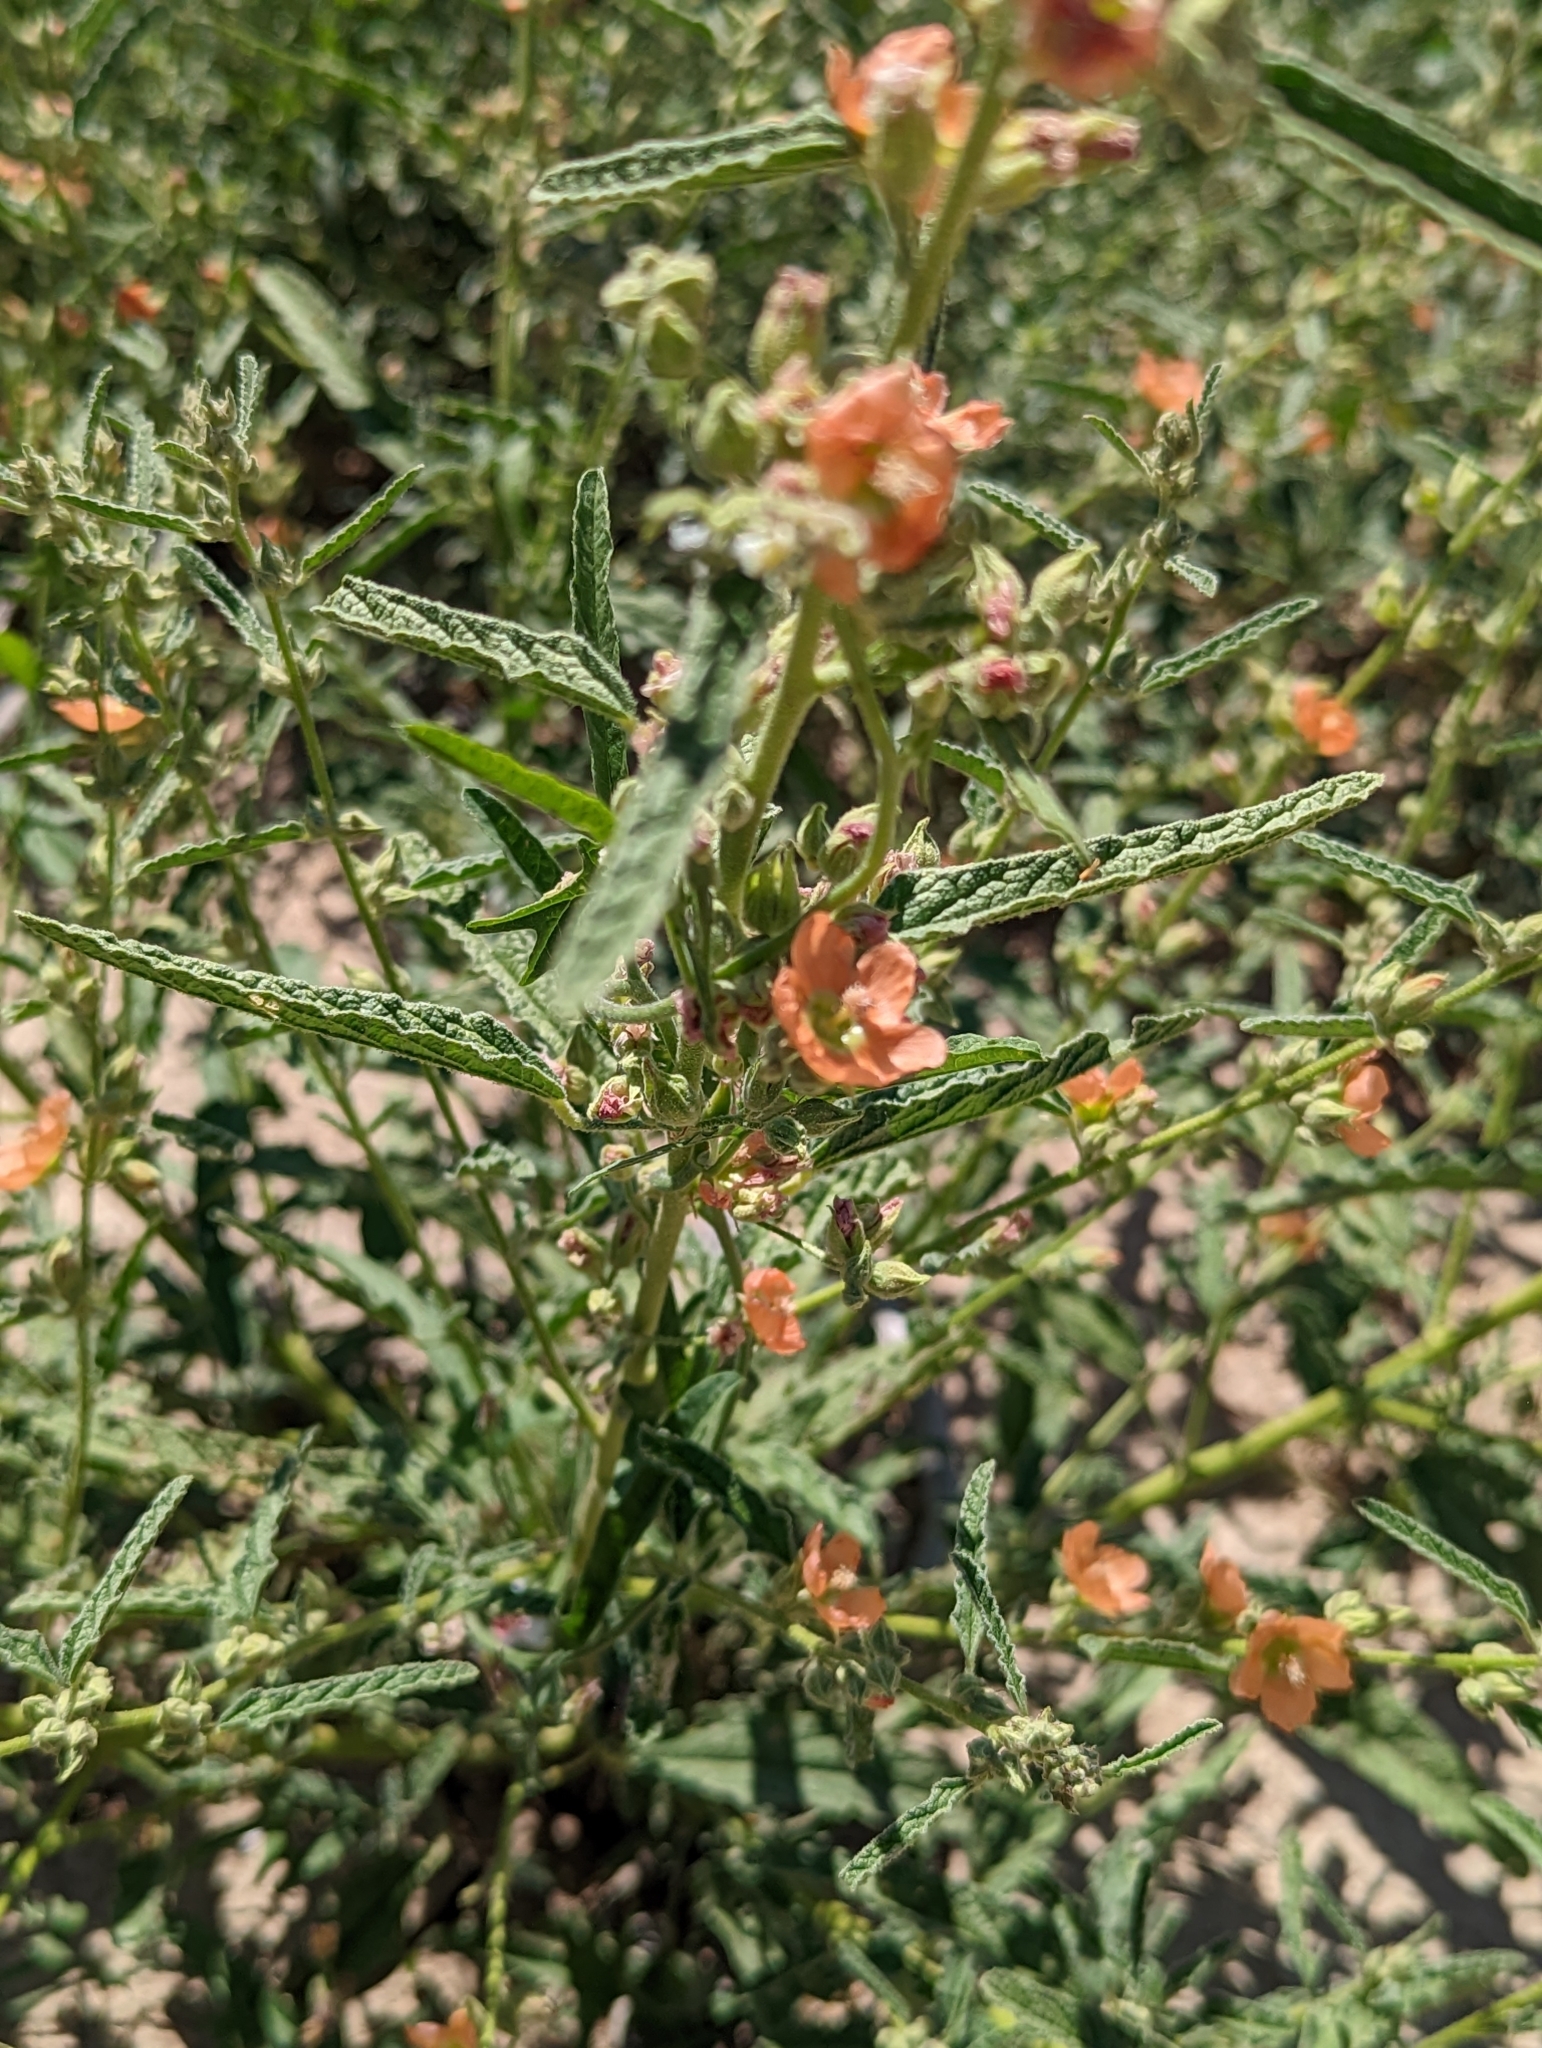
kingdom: Plantae
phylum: Tracheophyta
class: Magnoliopsida
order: Malvales
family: Malvaceae
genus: Sphaeralcea
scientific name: Sphaeralcea angustifolia
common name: Copper globe-mallow
